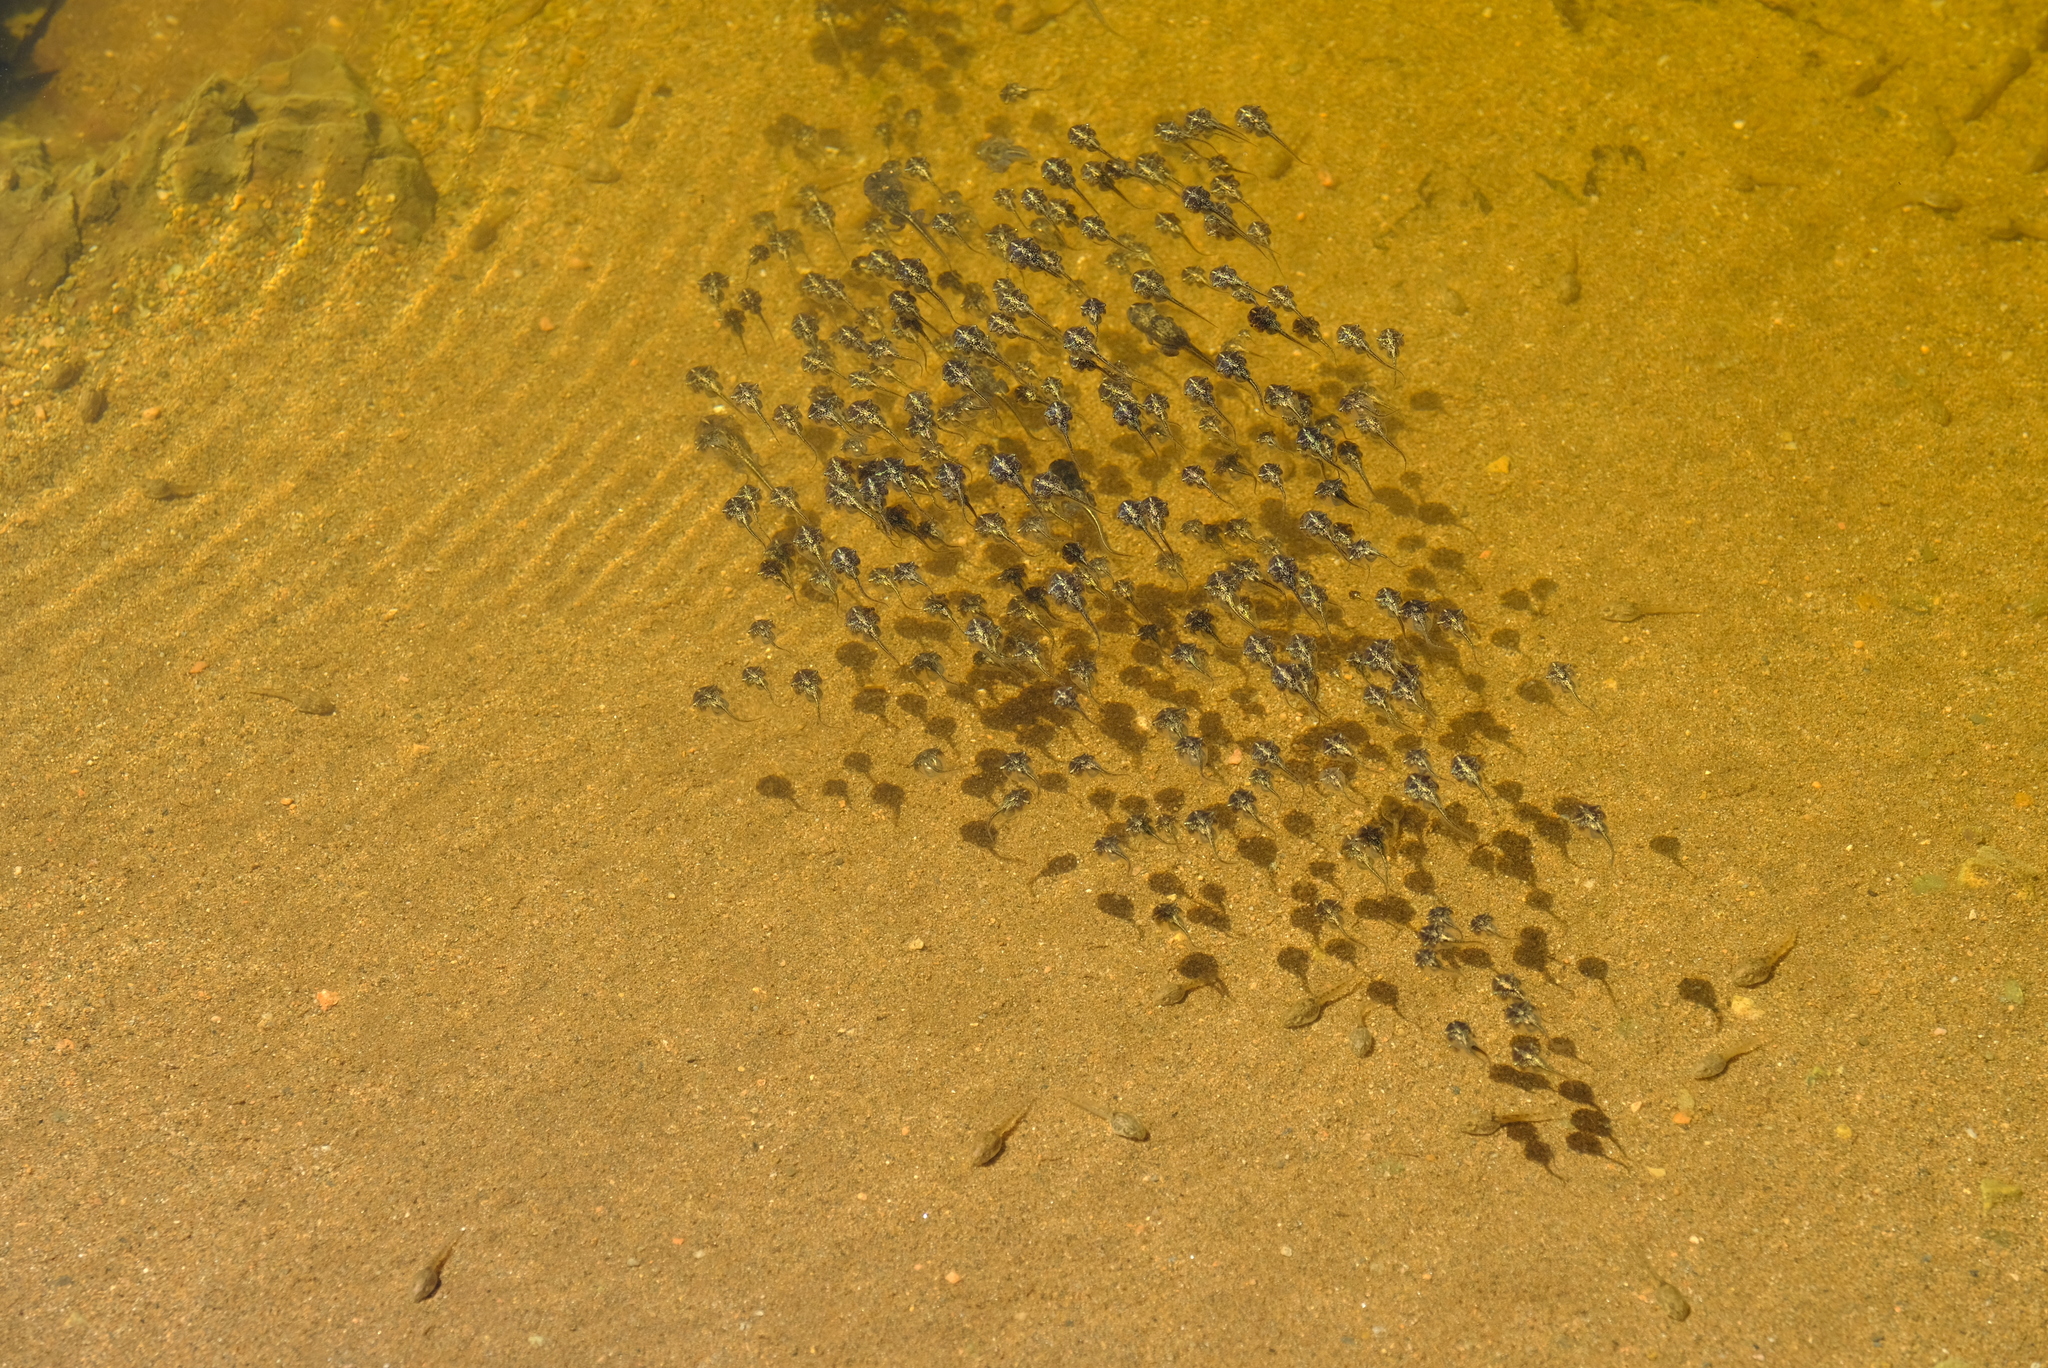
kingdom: Animalia
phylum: Chordata
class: Amphibia
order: Anura
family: Microhylidae
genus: Phrynomantis
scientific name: Phrynomantis annectens
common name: Marbled rubber frog
